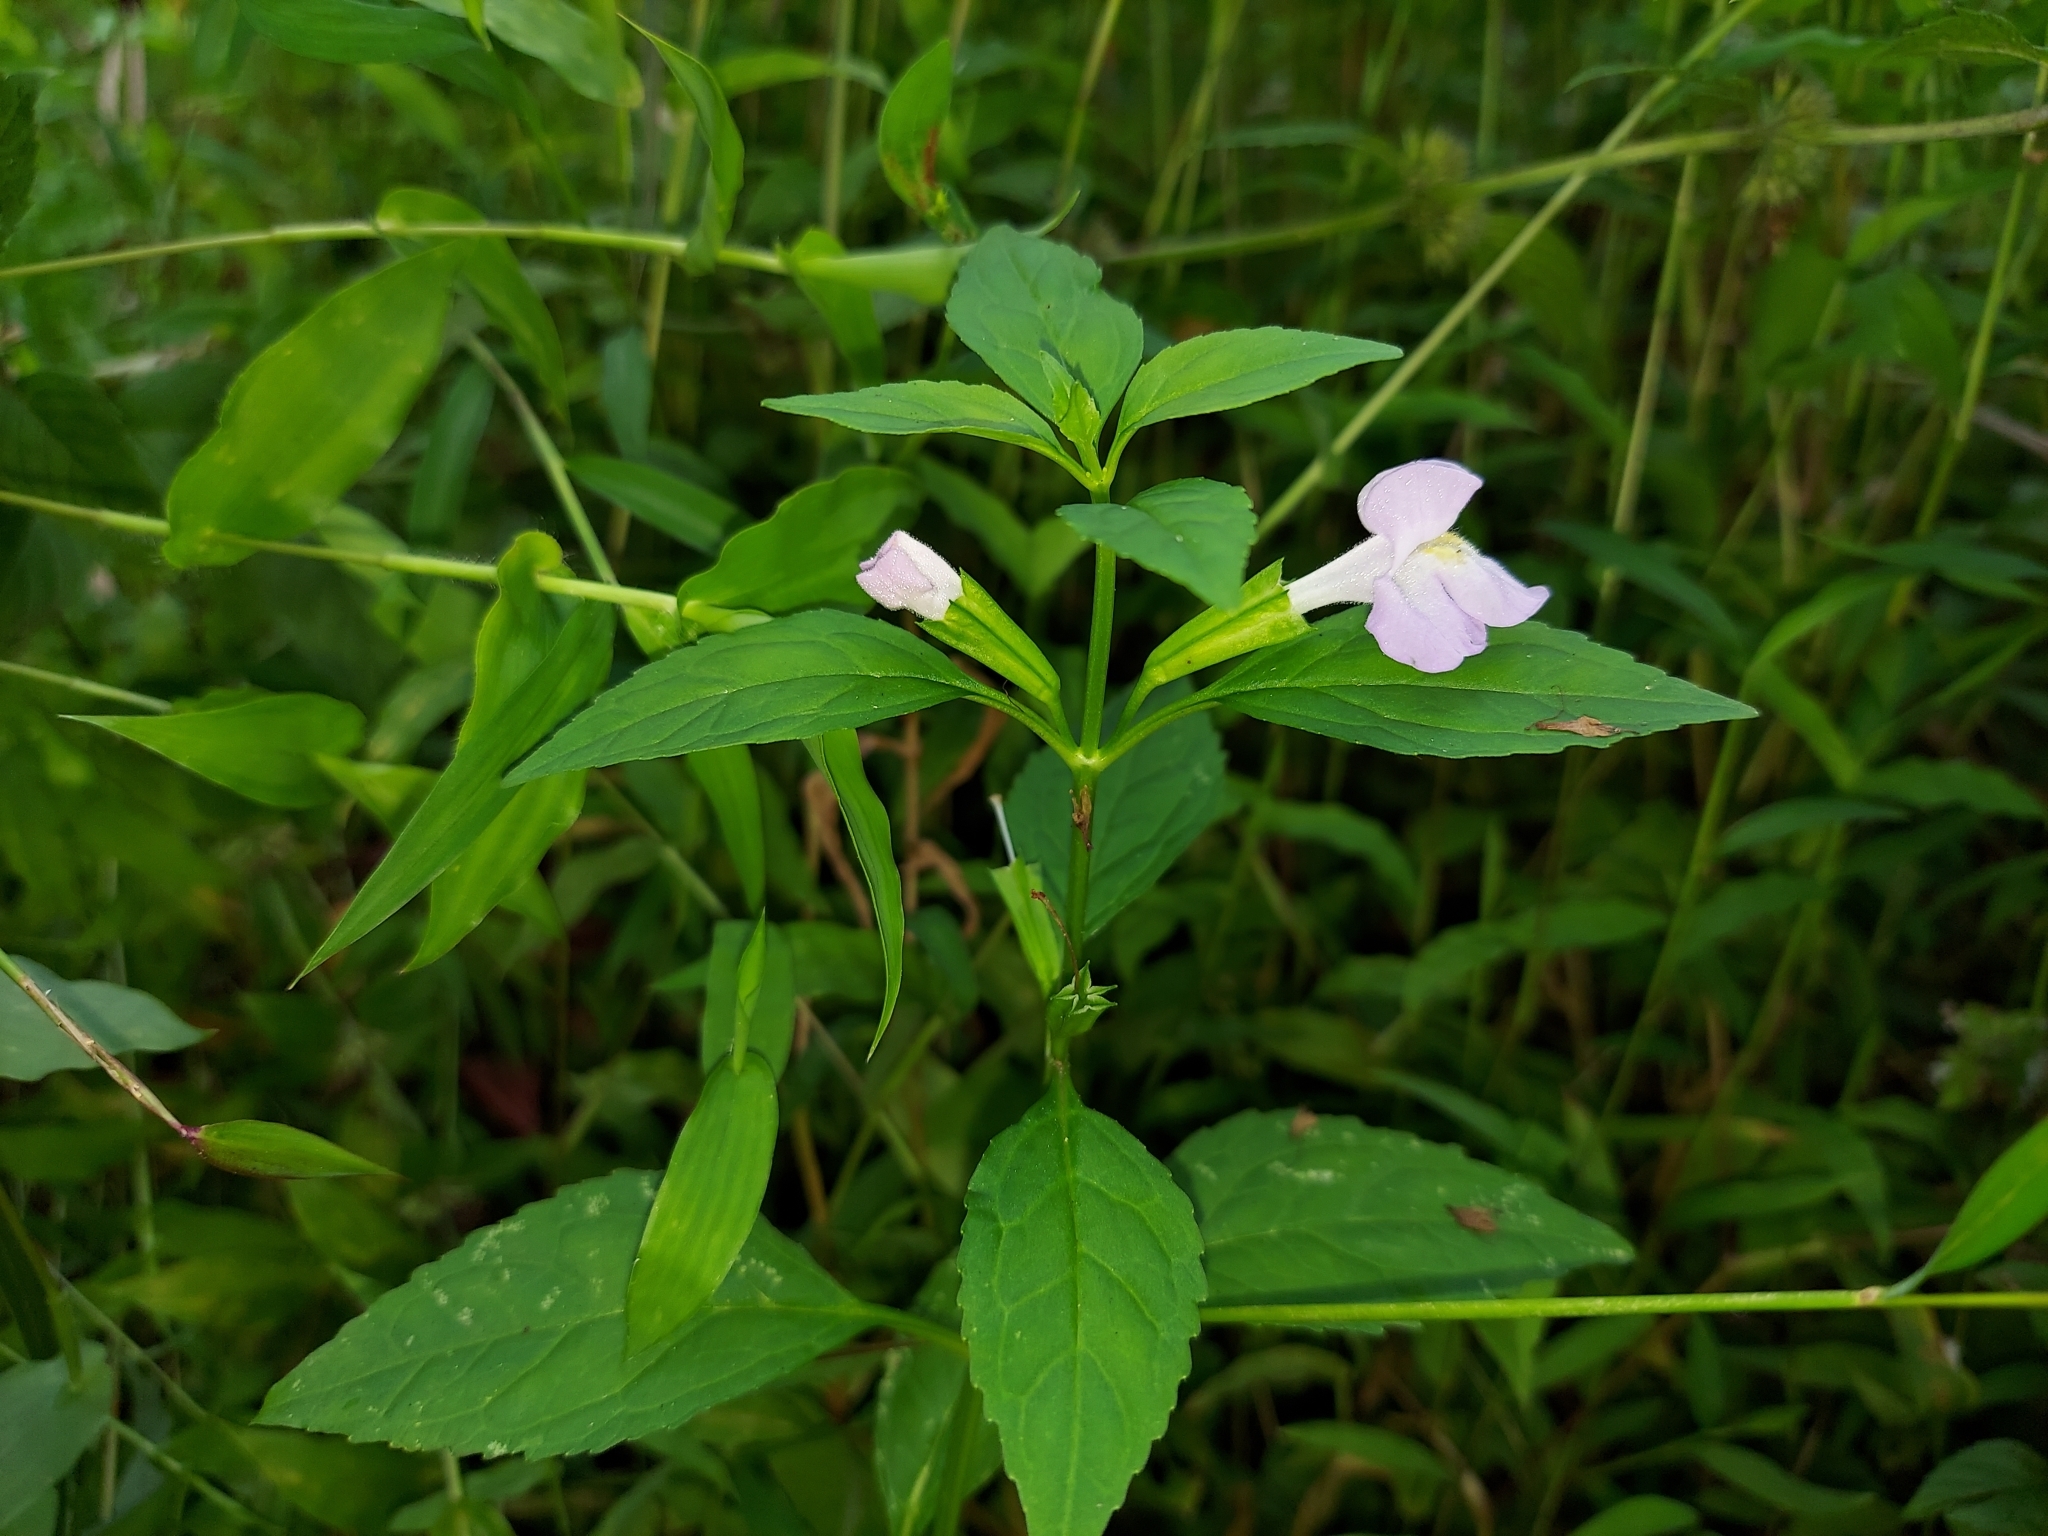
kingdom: Plantae
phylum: Tracheophyta
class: Magnoliopsida
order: Lamiales
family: Phrymaceae
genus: Mimulus
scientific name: Mimulus alatus
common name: Sharp-wing monkey-flower
